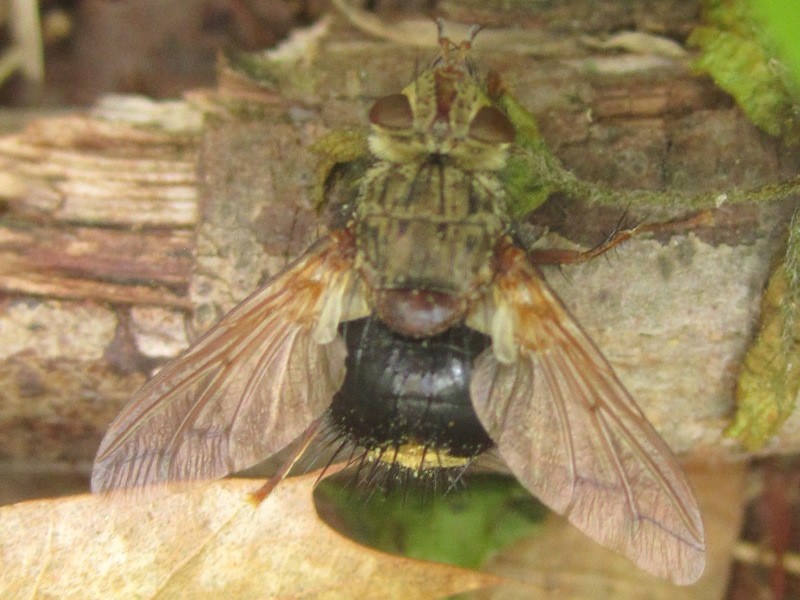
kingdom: Animalia
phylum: Arthropoda
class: Insecta
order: Diptera
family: Tachinidae
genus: Epalpus
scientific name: Epalpus signifer
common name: Early tachinid fly
